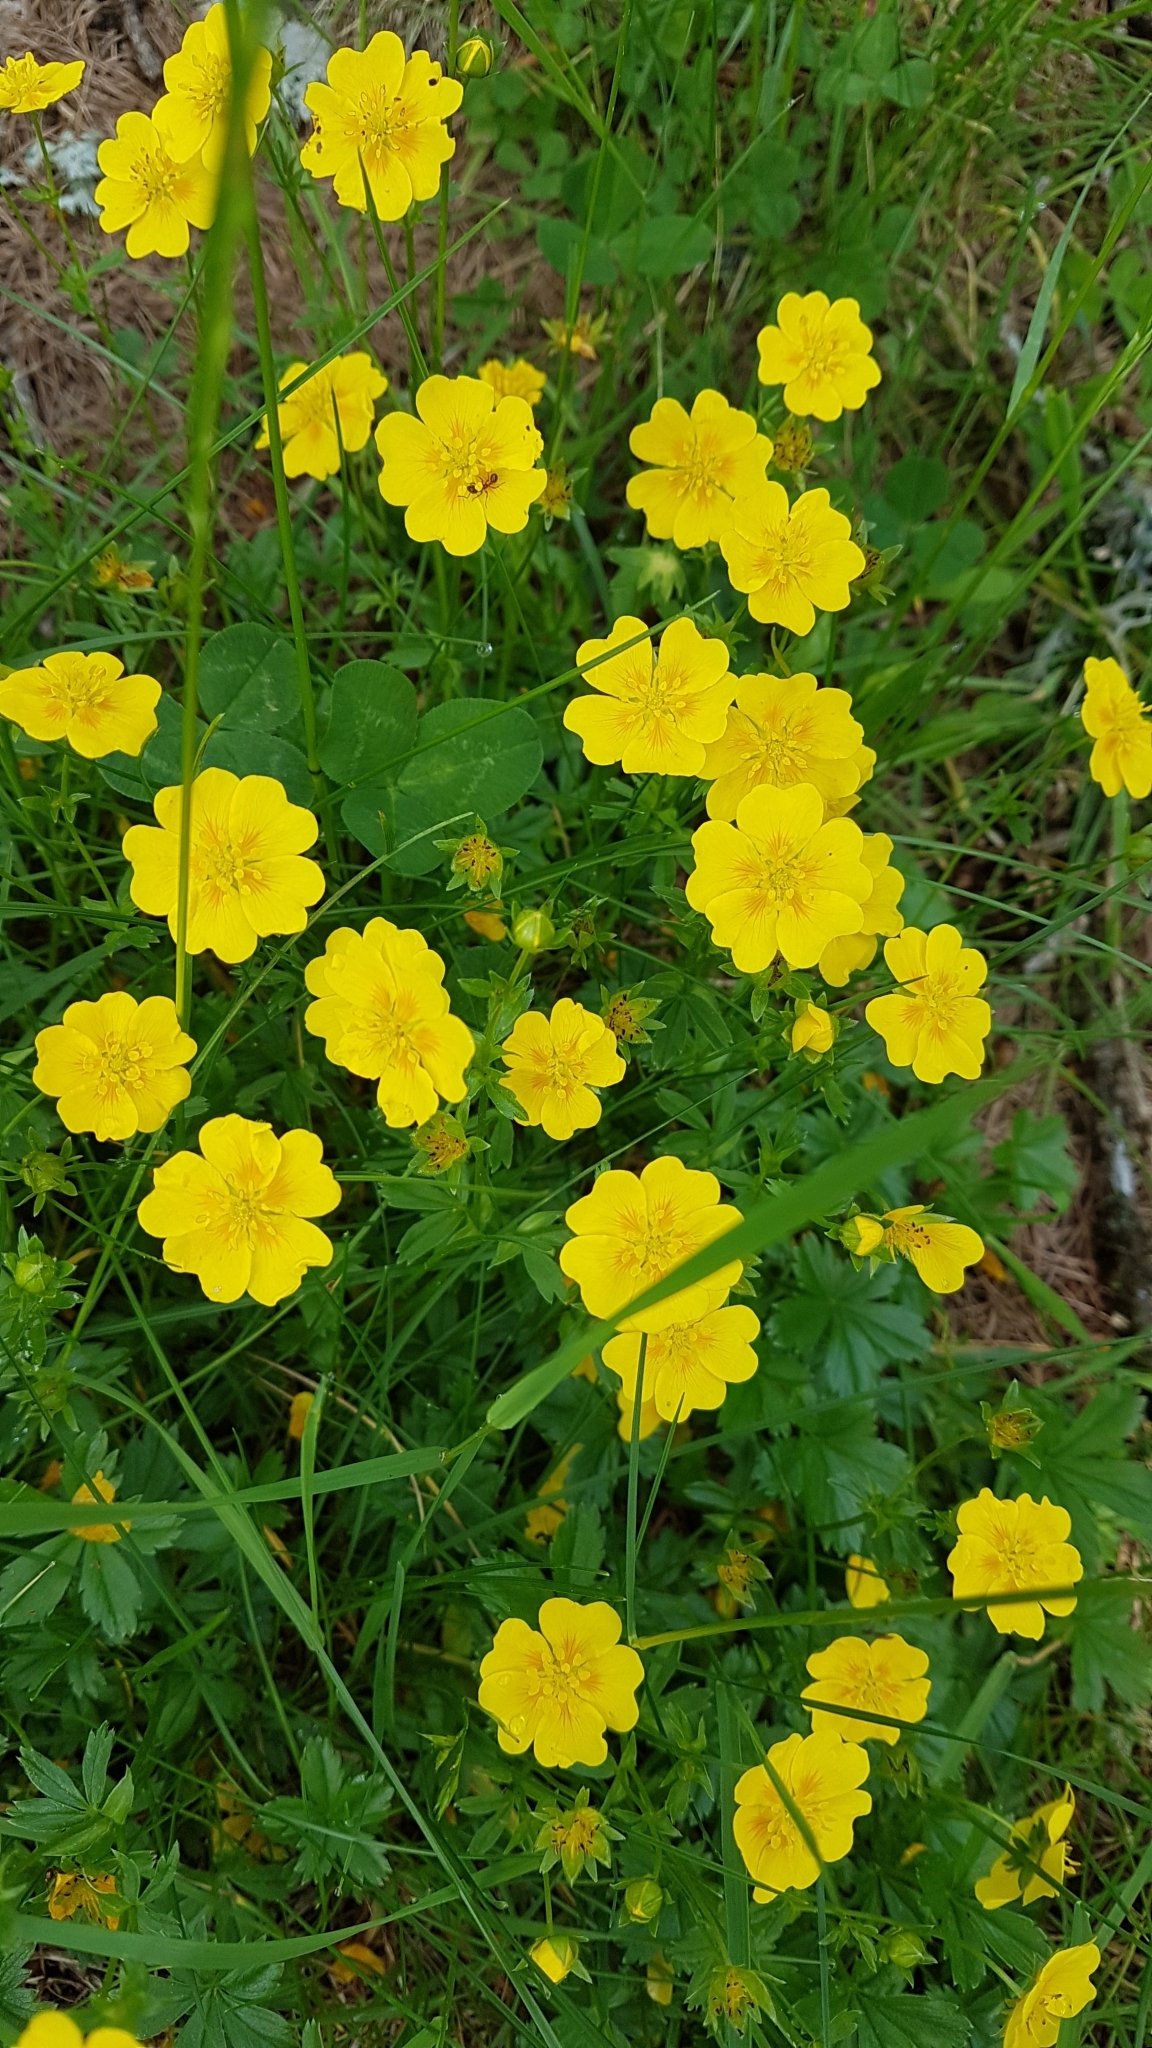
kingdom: Plantae
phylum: Tracheophyta
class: Magnoliopsida
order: Rosales
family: Rosaceae
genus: Potentilla
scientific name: Potentilla aurea
